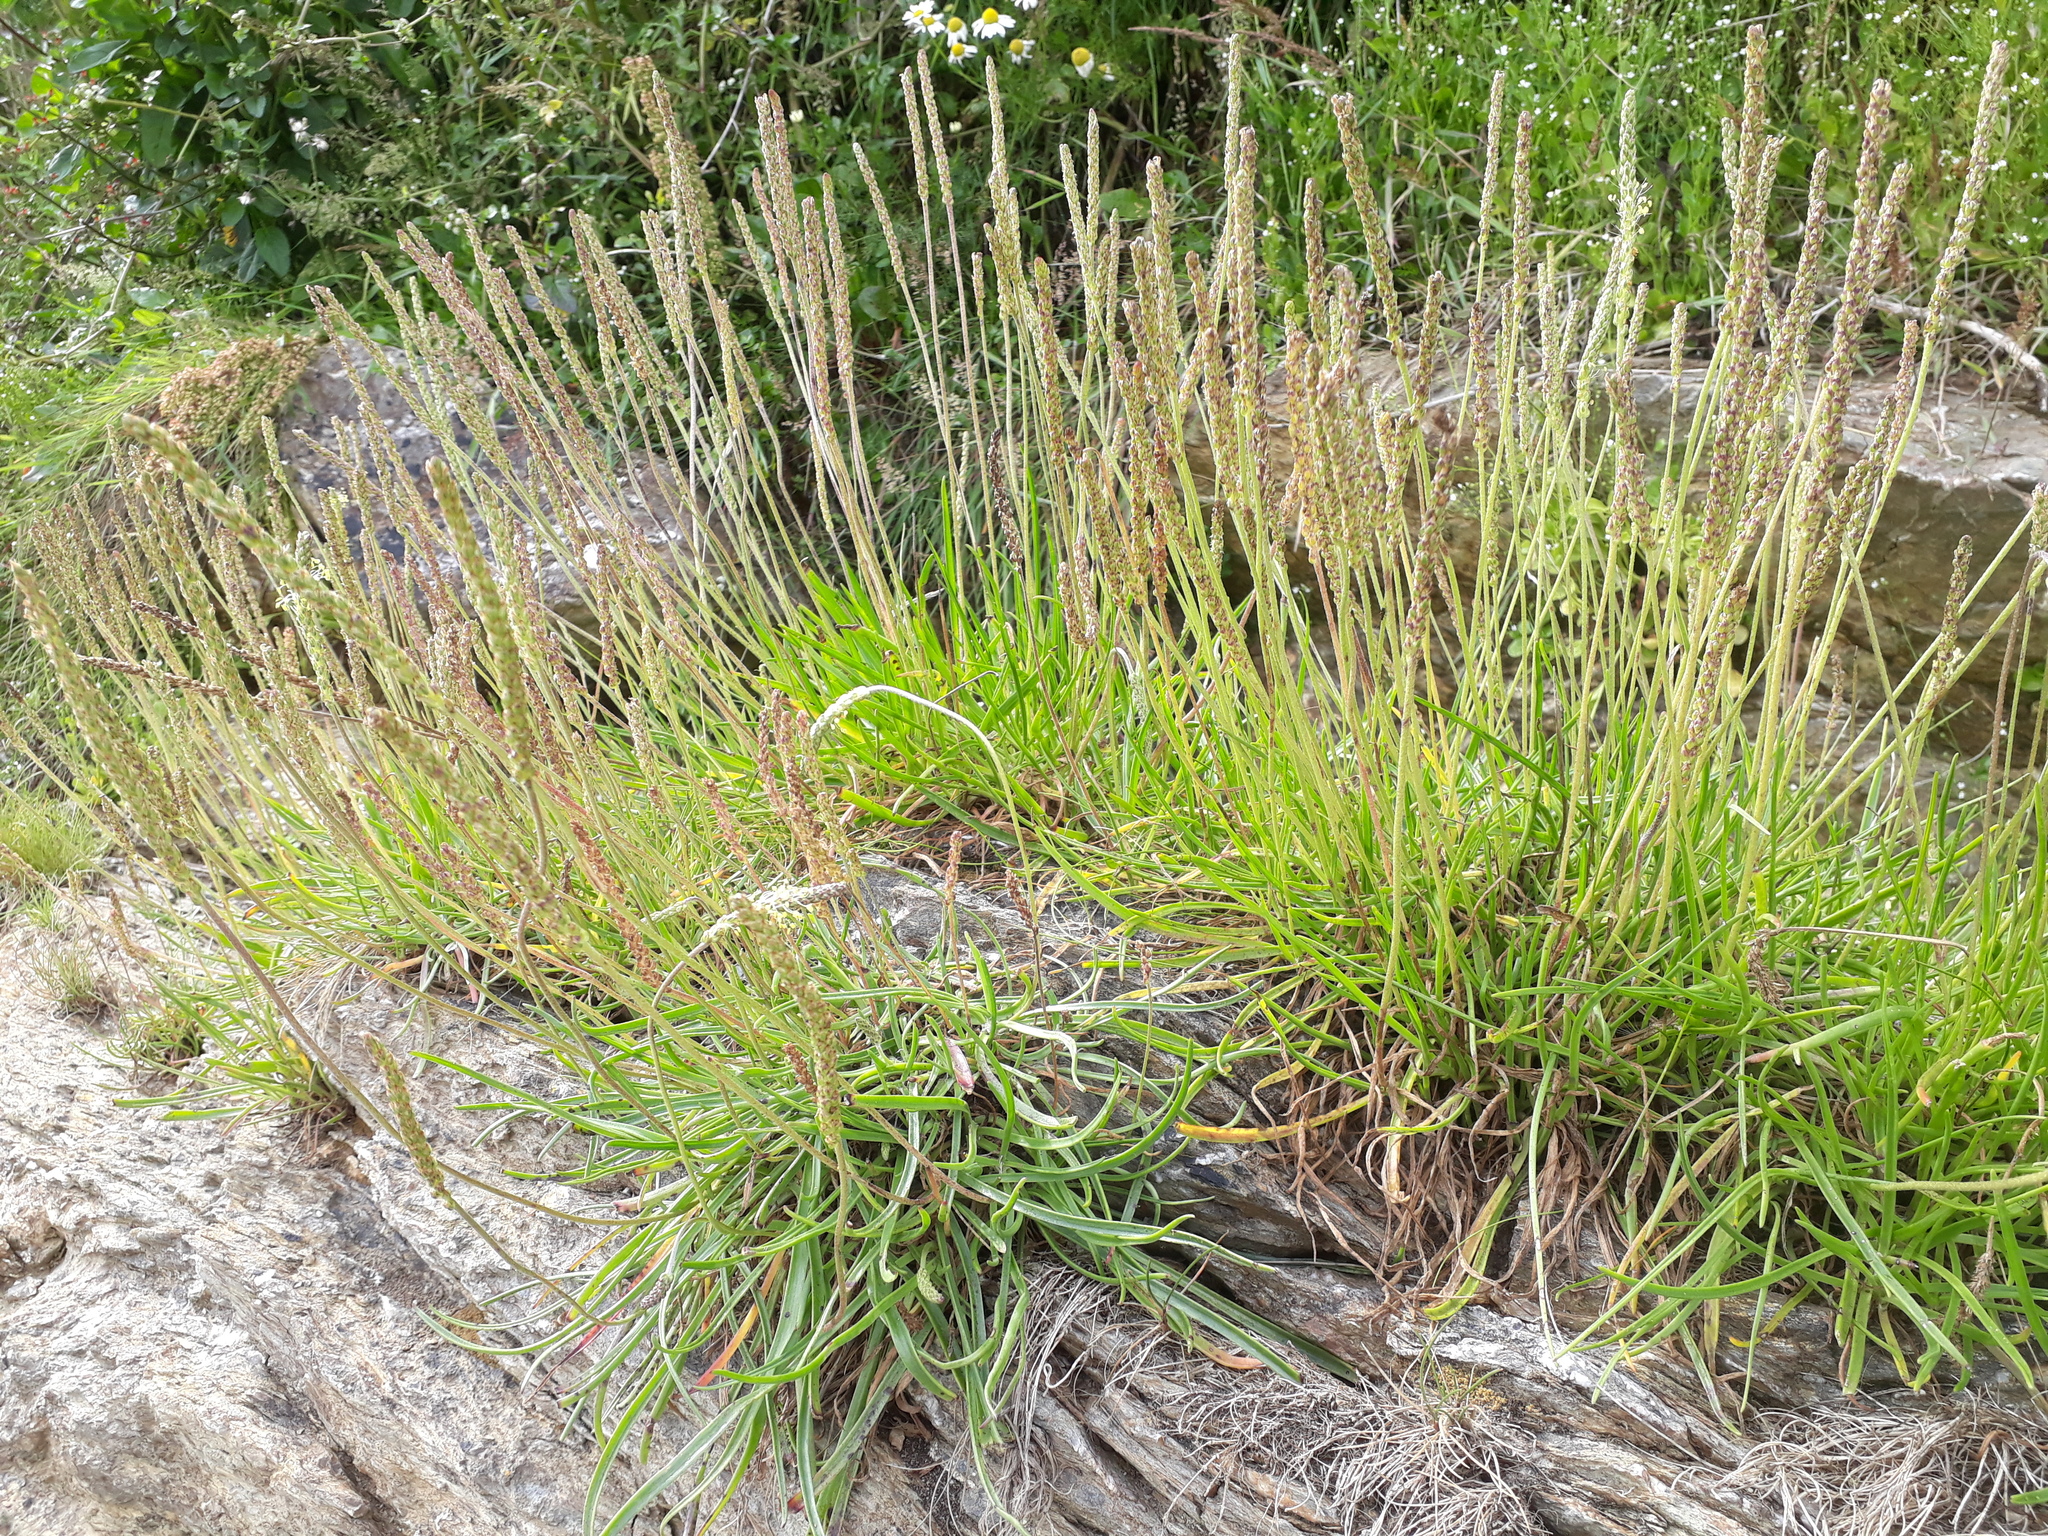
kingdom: Plantae
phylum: Tracheophyta
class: Magnoliopsida
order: Lamiales
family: Plantaginaceae
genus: Plantago
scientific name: Plantago maritima
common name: Sea plantain
